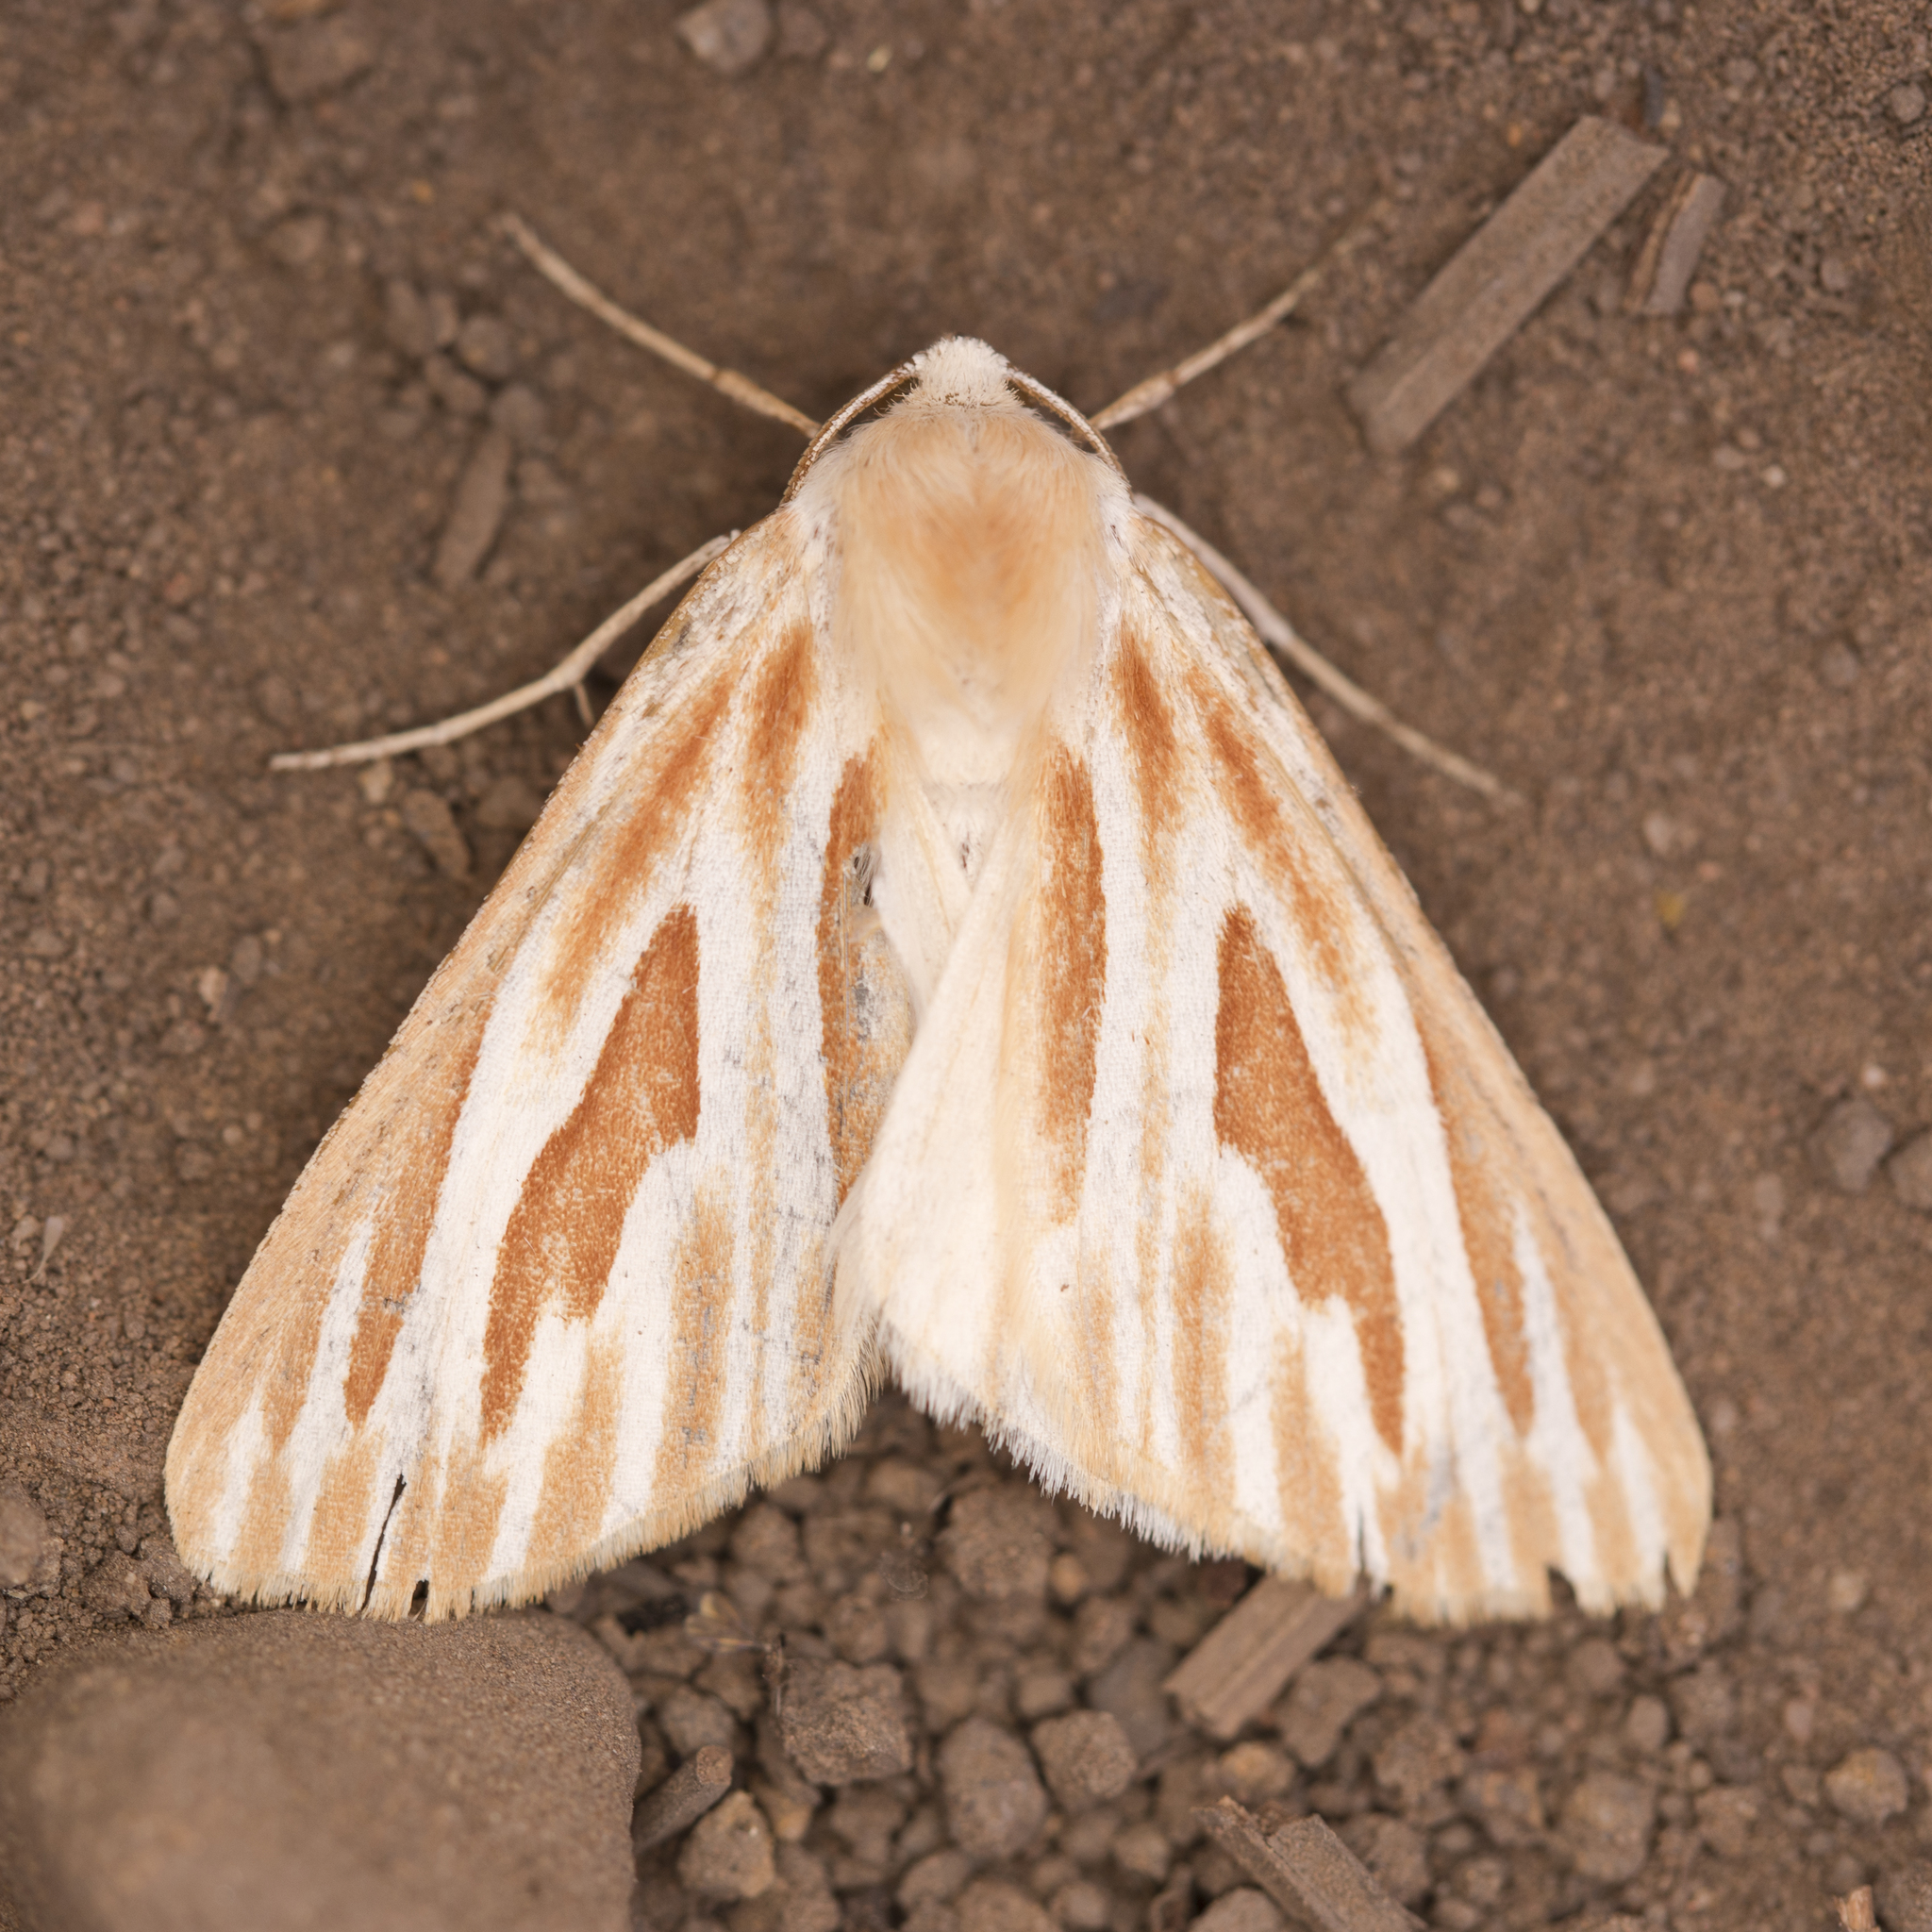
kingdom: Animalia
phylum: Arthropoda
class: Insecta
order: Lepidoptera
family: Geometridae
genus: Sabulodes
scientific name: Sabulodes niveostriata
